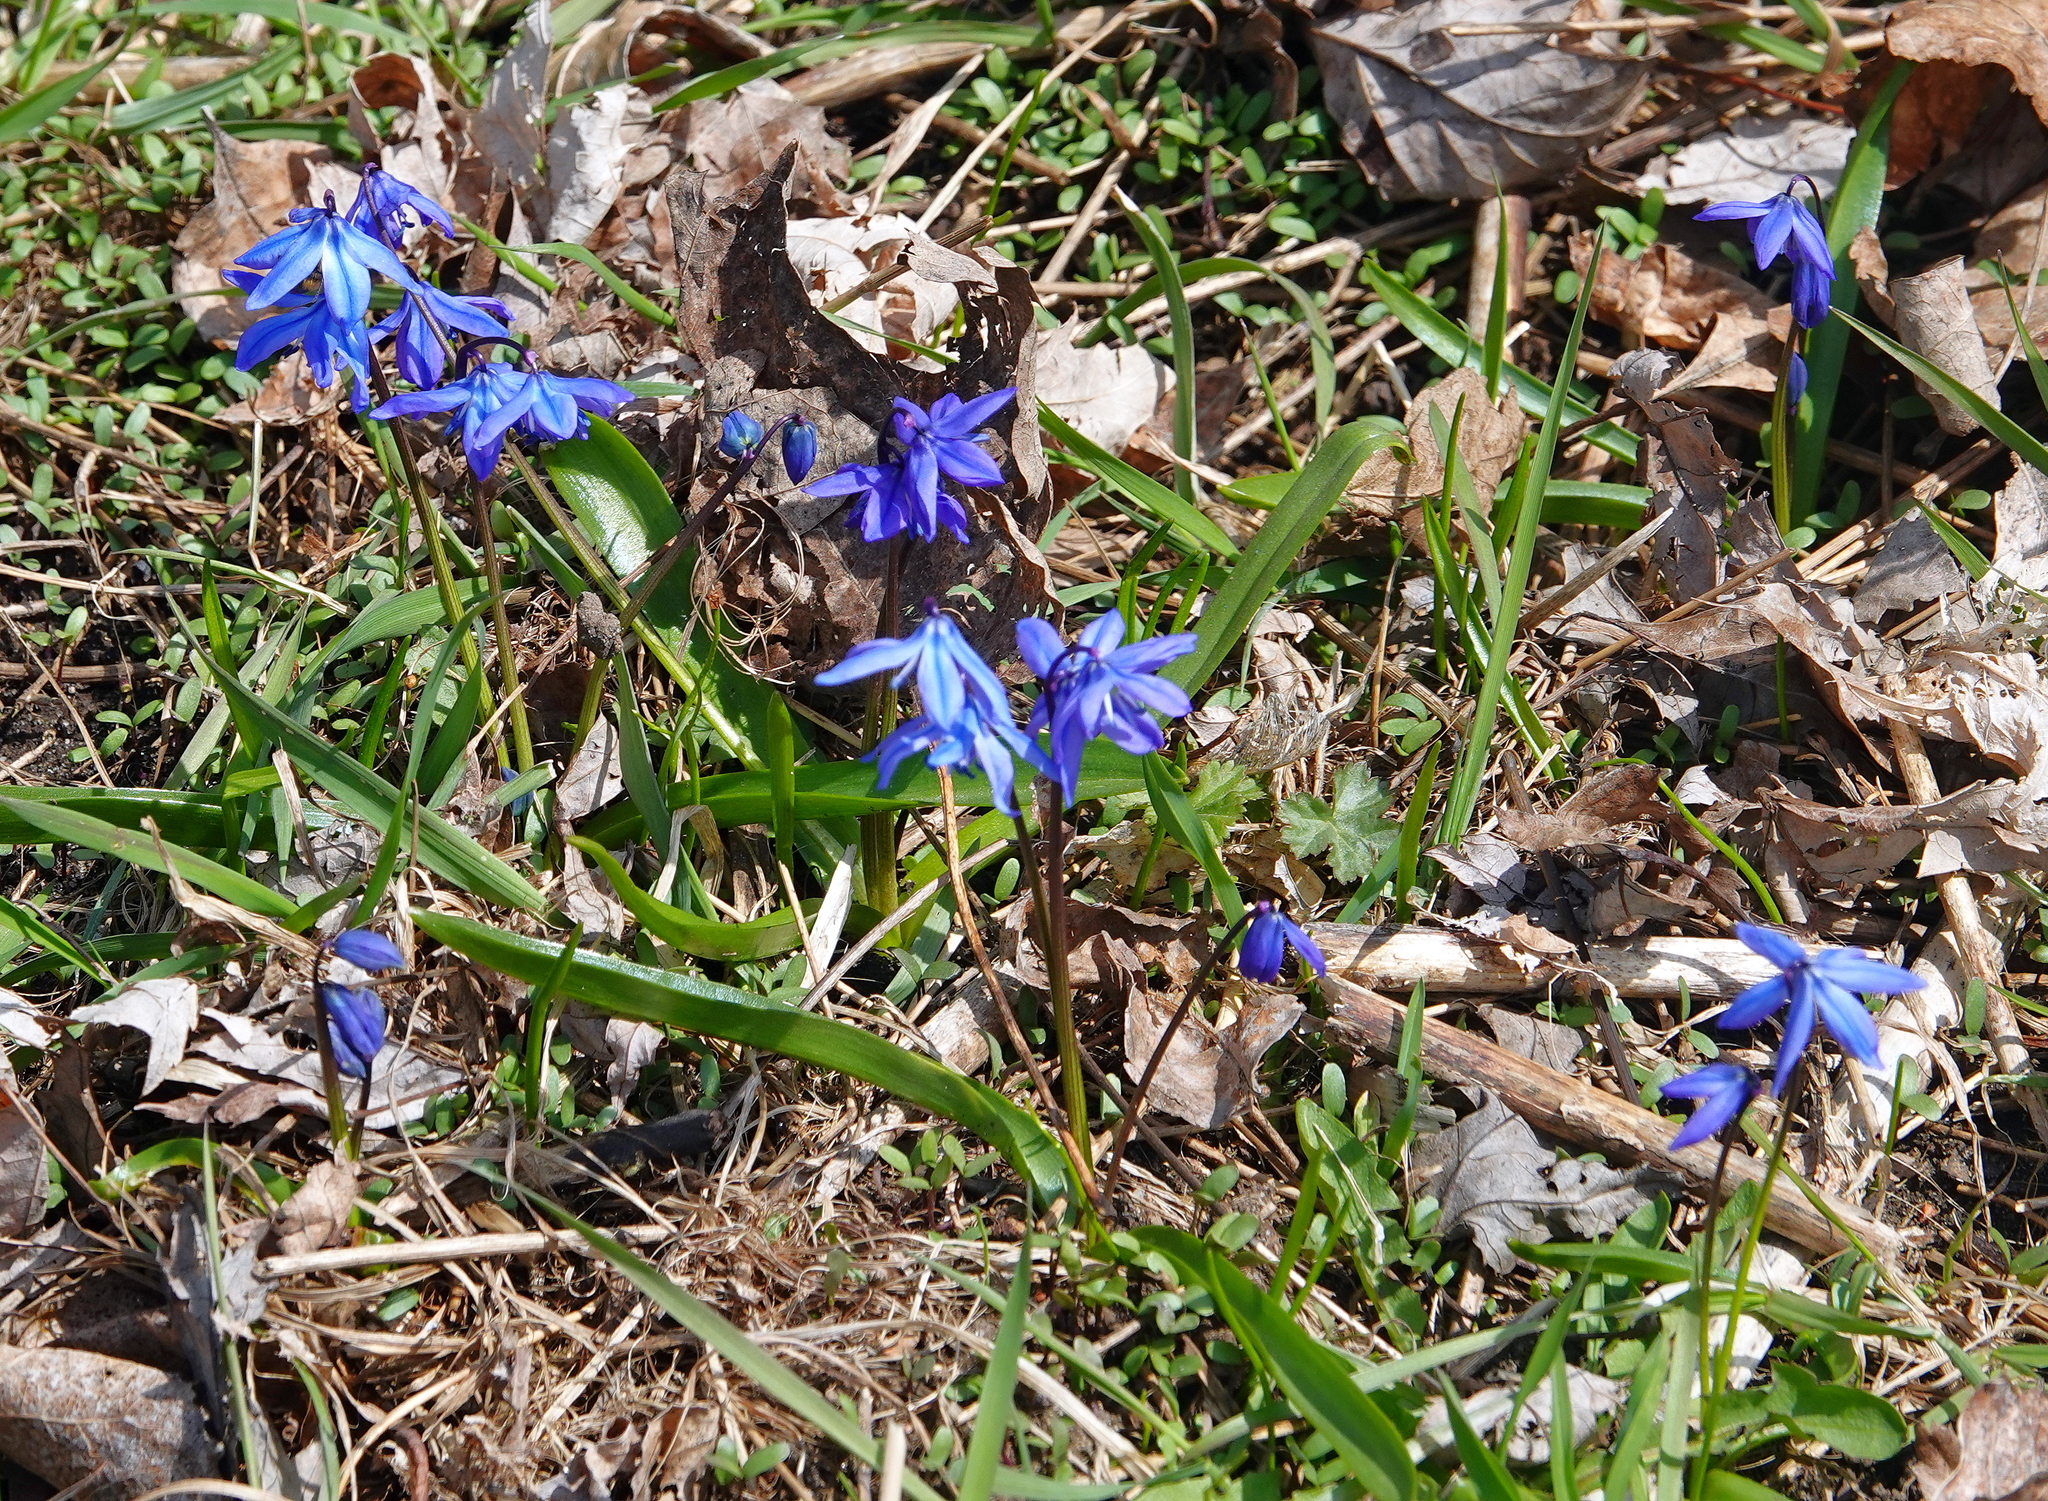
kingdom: Plantae
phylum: Tracheophyta
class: Liliopsida
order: Asparagales
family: Asparagaceae
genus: Scilla
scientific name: Scilla siberica
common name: Siberian squill
